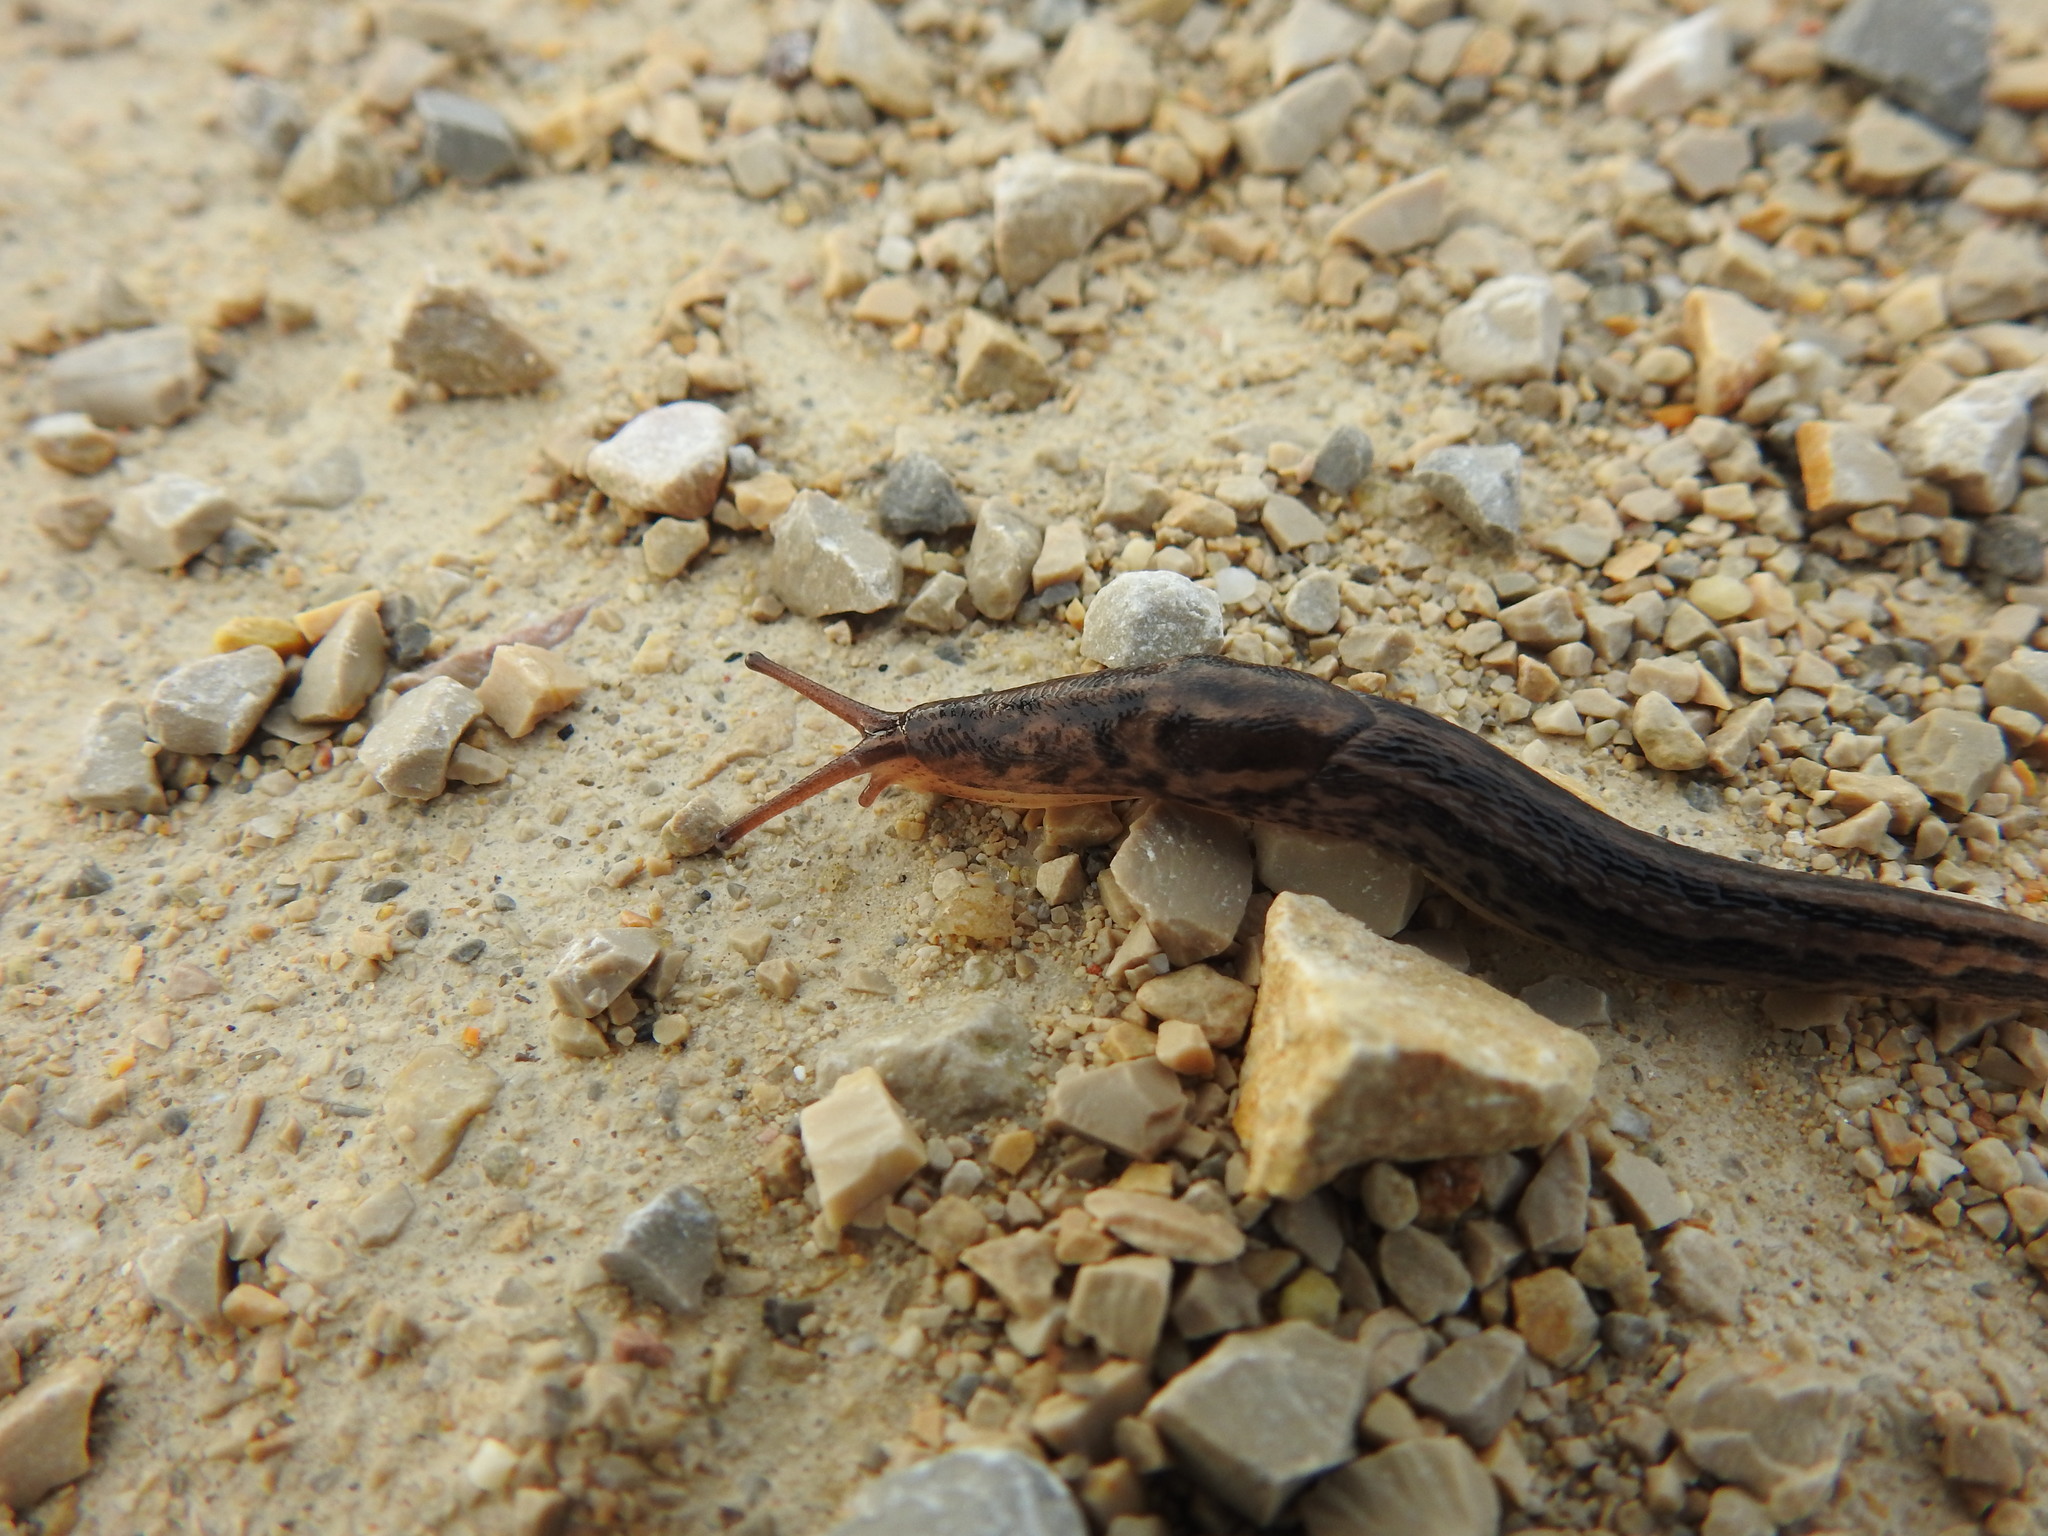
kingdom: Animalia
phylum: Mollusca
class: Gastropoda
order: Stylommatophora
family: Limacidae
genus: Limax
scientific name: Limax maximus
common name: Great grey slug
